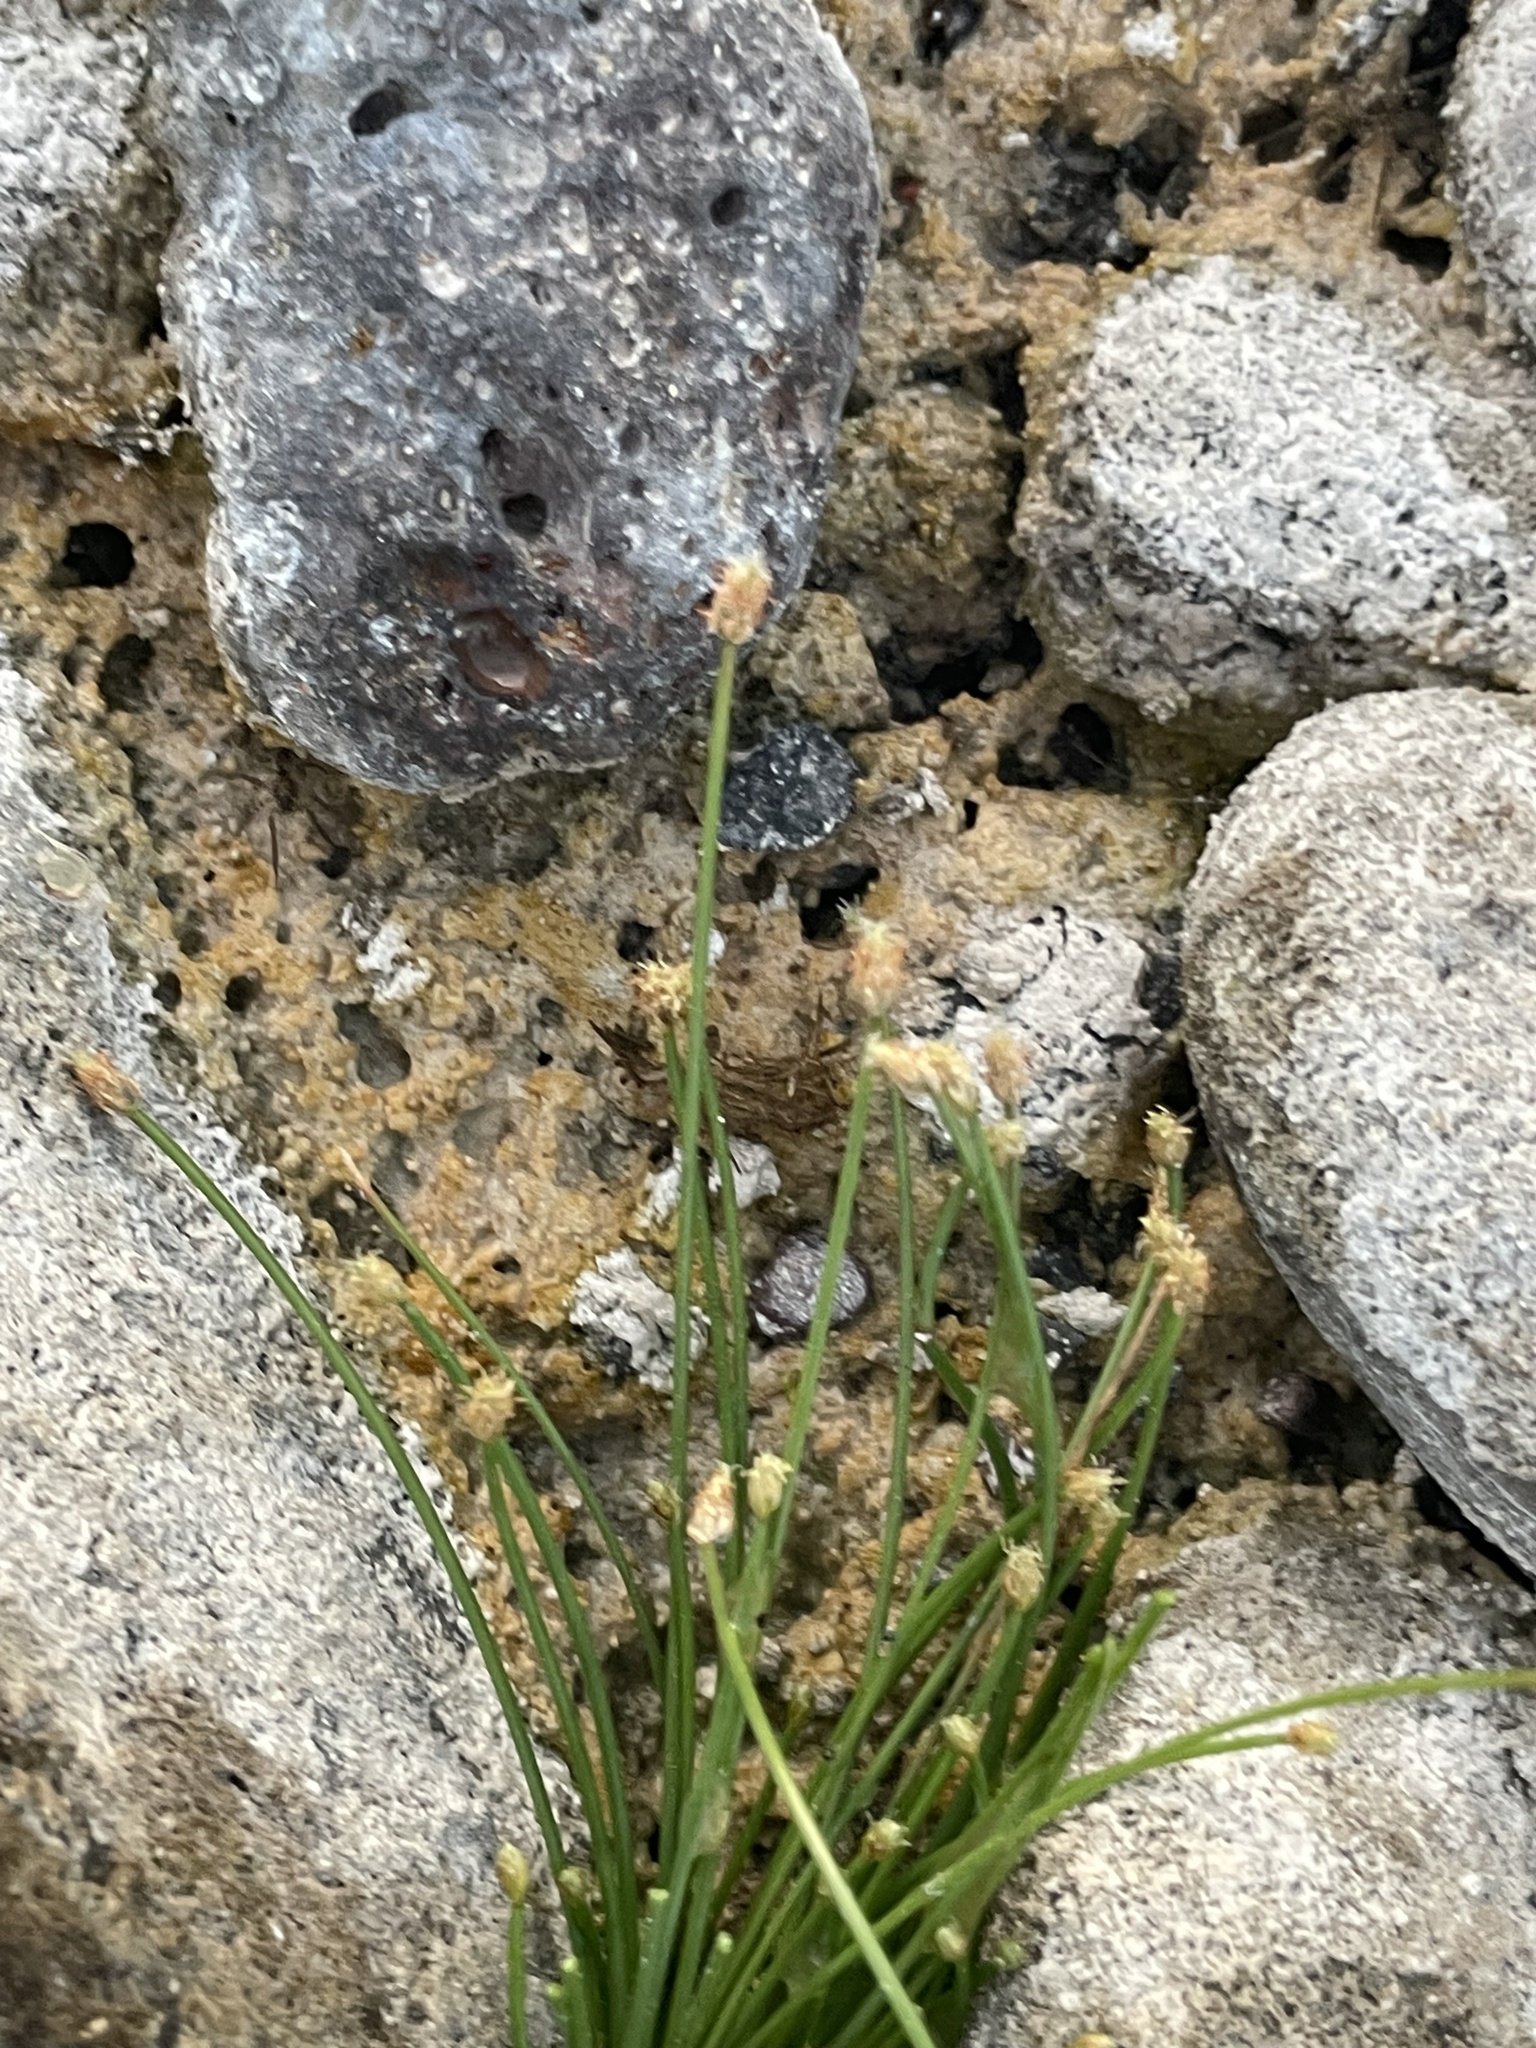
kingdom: Plantae
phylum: Tracheophyta
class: Liliopsida
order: Poales
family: Cyperaceae
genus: Eleocharis
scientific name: Eleocharis geniculata
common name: Canada spikesedge
